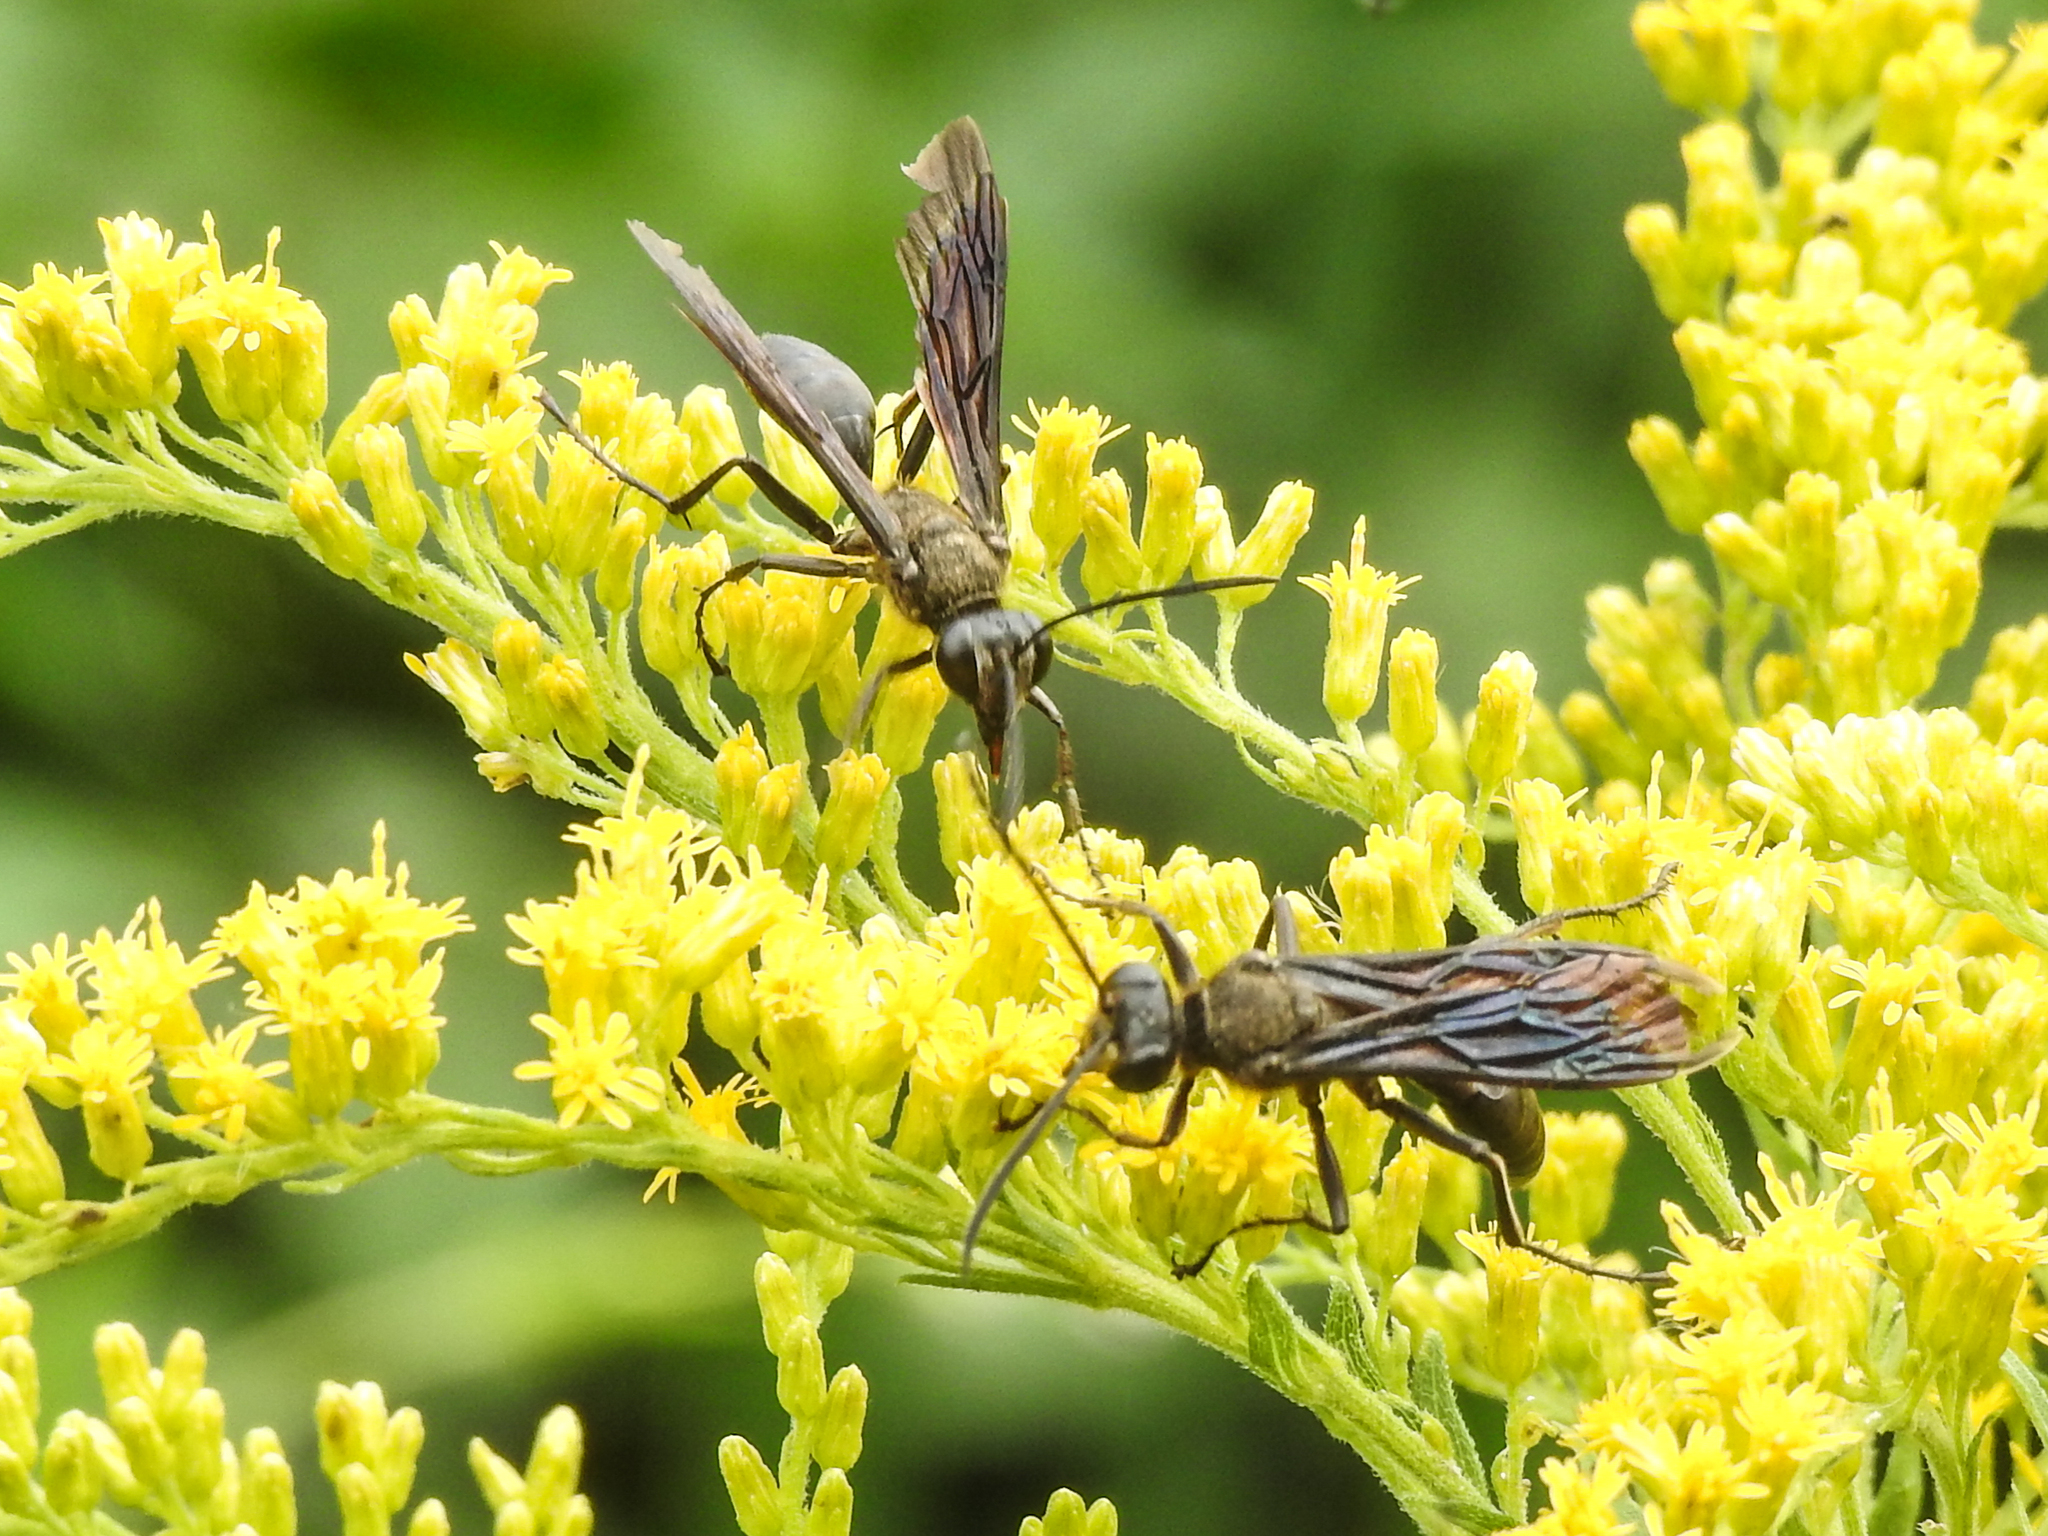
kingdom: Animalia
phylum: Arthropoda
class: Insecta
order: Hymenoptera
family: Sphecidae
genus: Sphex
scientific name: Sphex pensylvanicus
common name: Great black digger wasp
